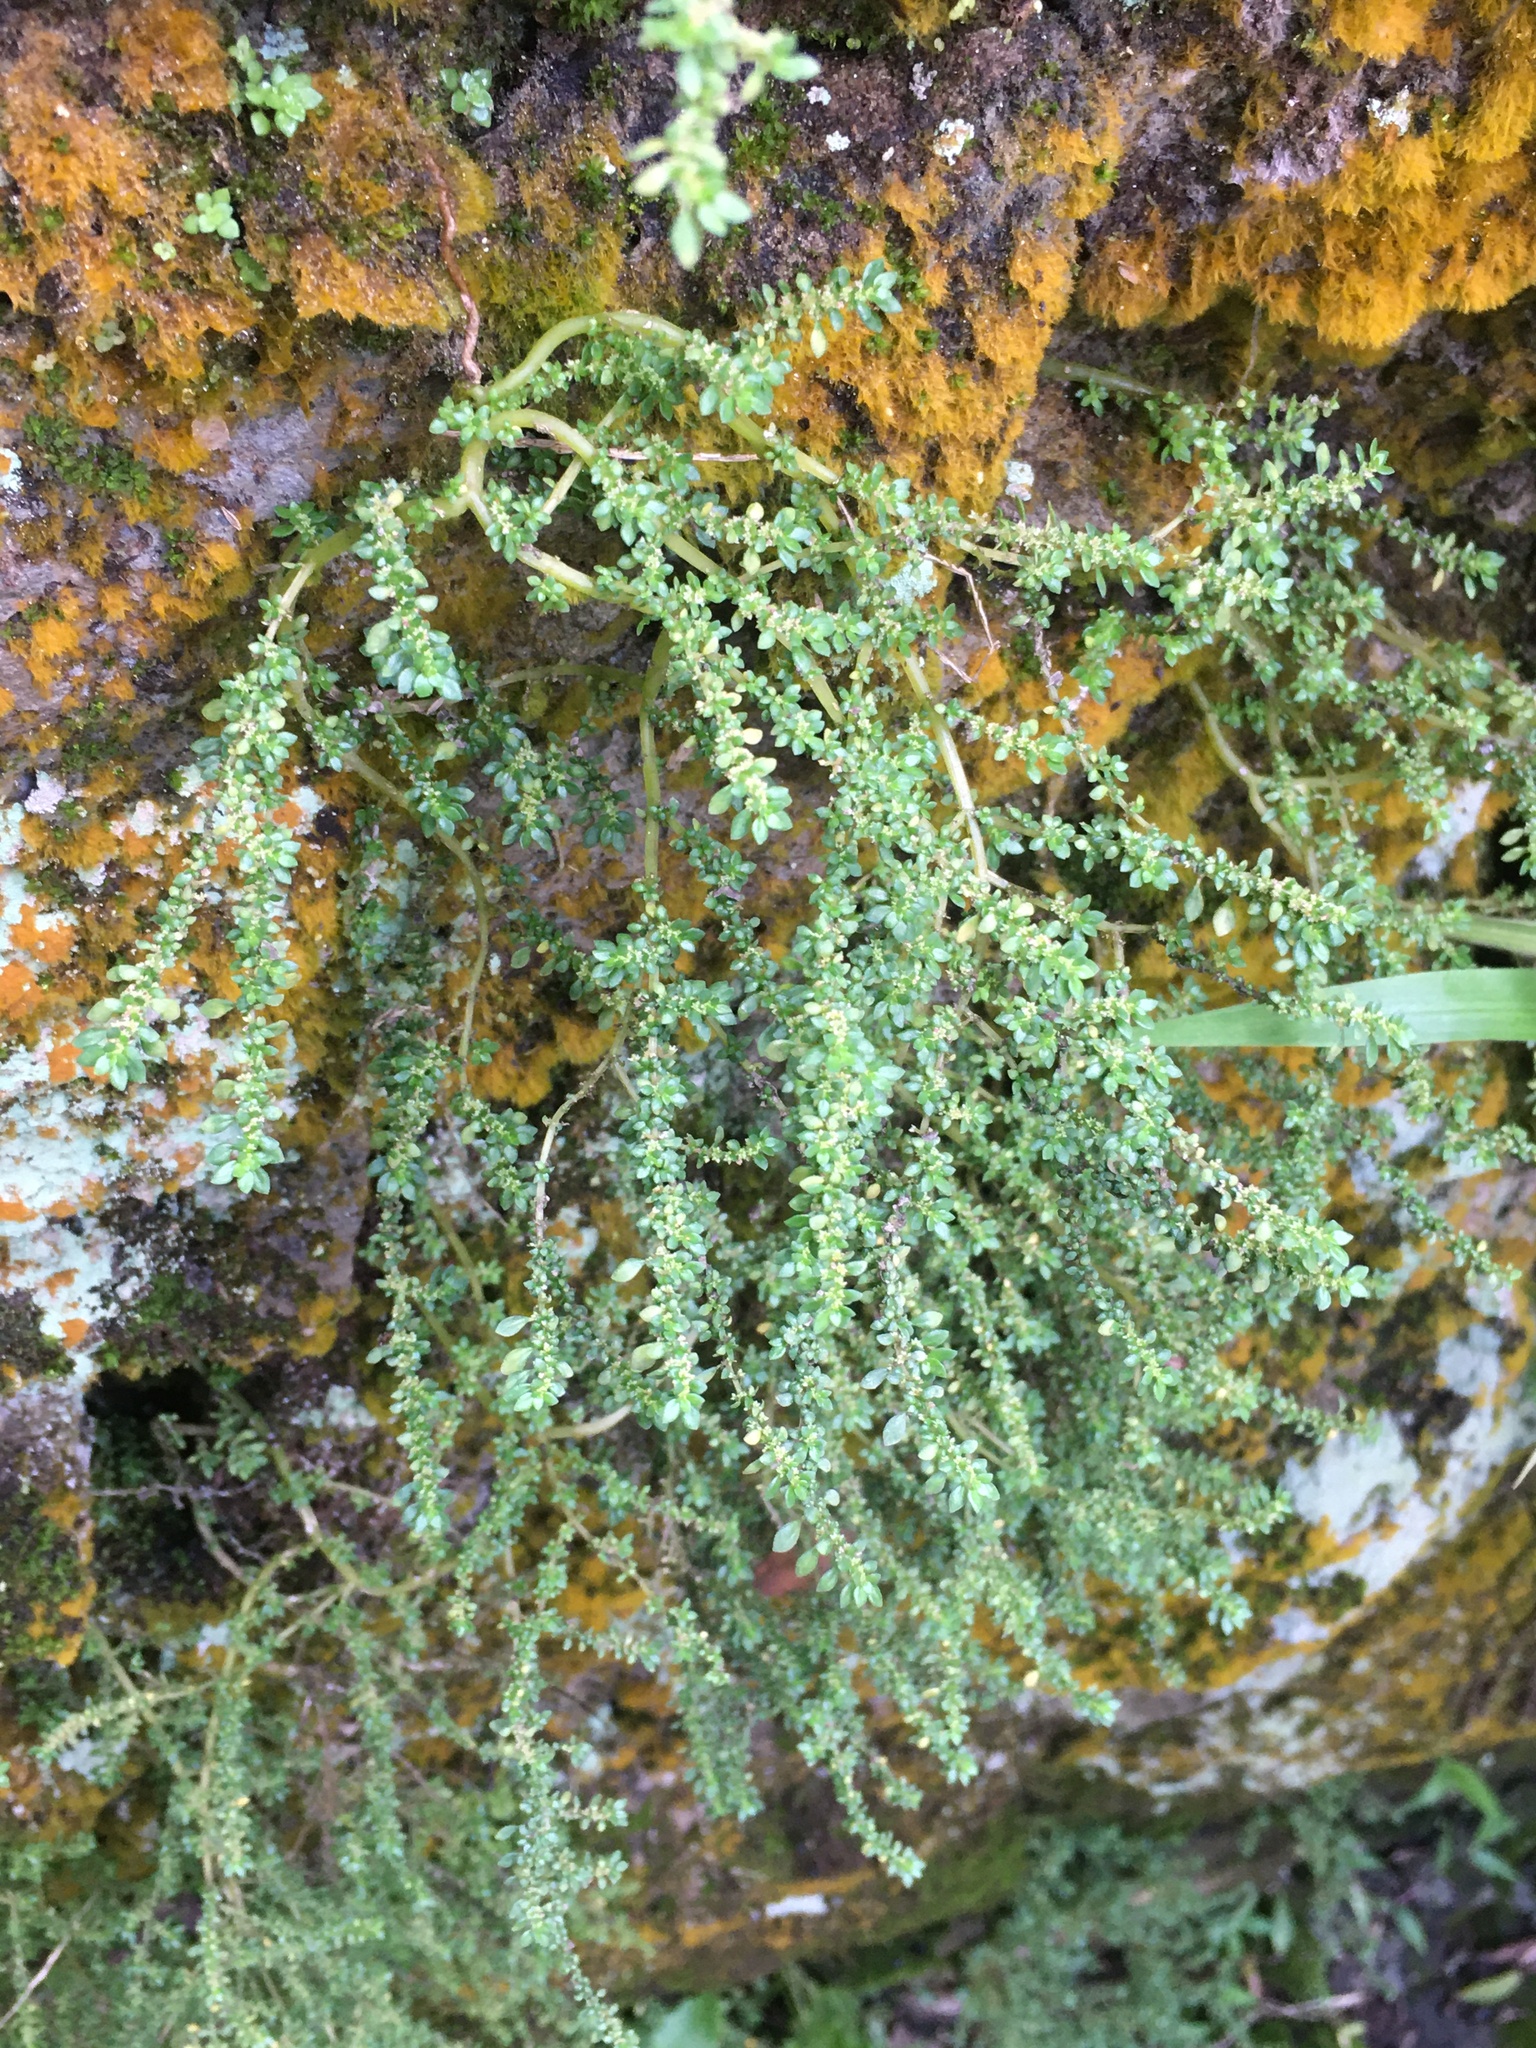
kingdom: Plantae
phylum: Tracheophyta
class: Magnoliopsida
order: Rosales
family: Urticaceae
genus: Pilea
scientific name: Pilea microphylla
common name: Artillery-plant
